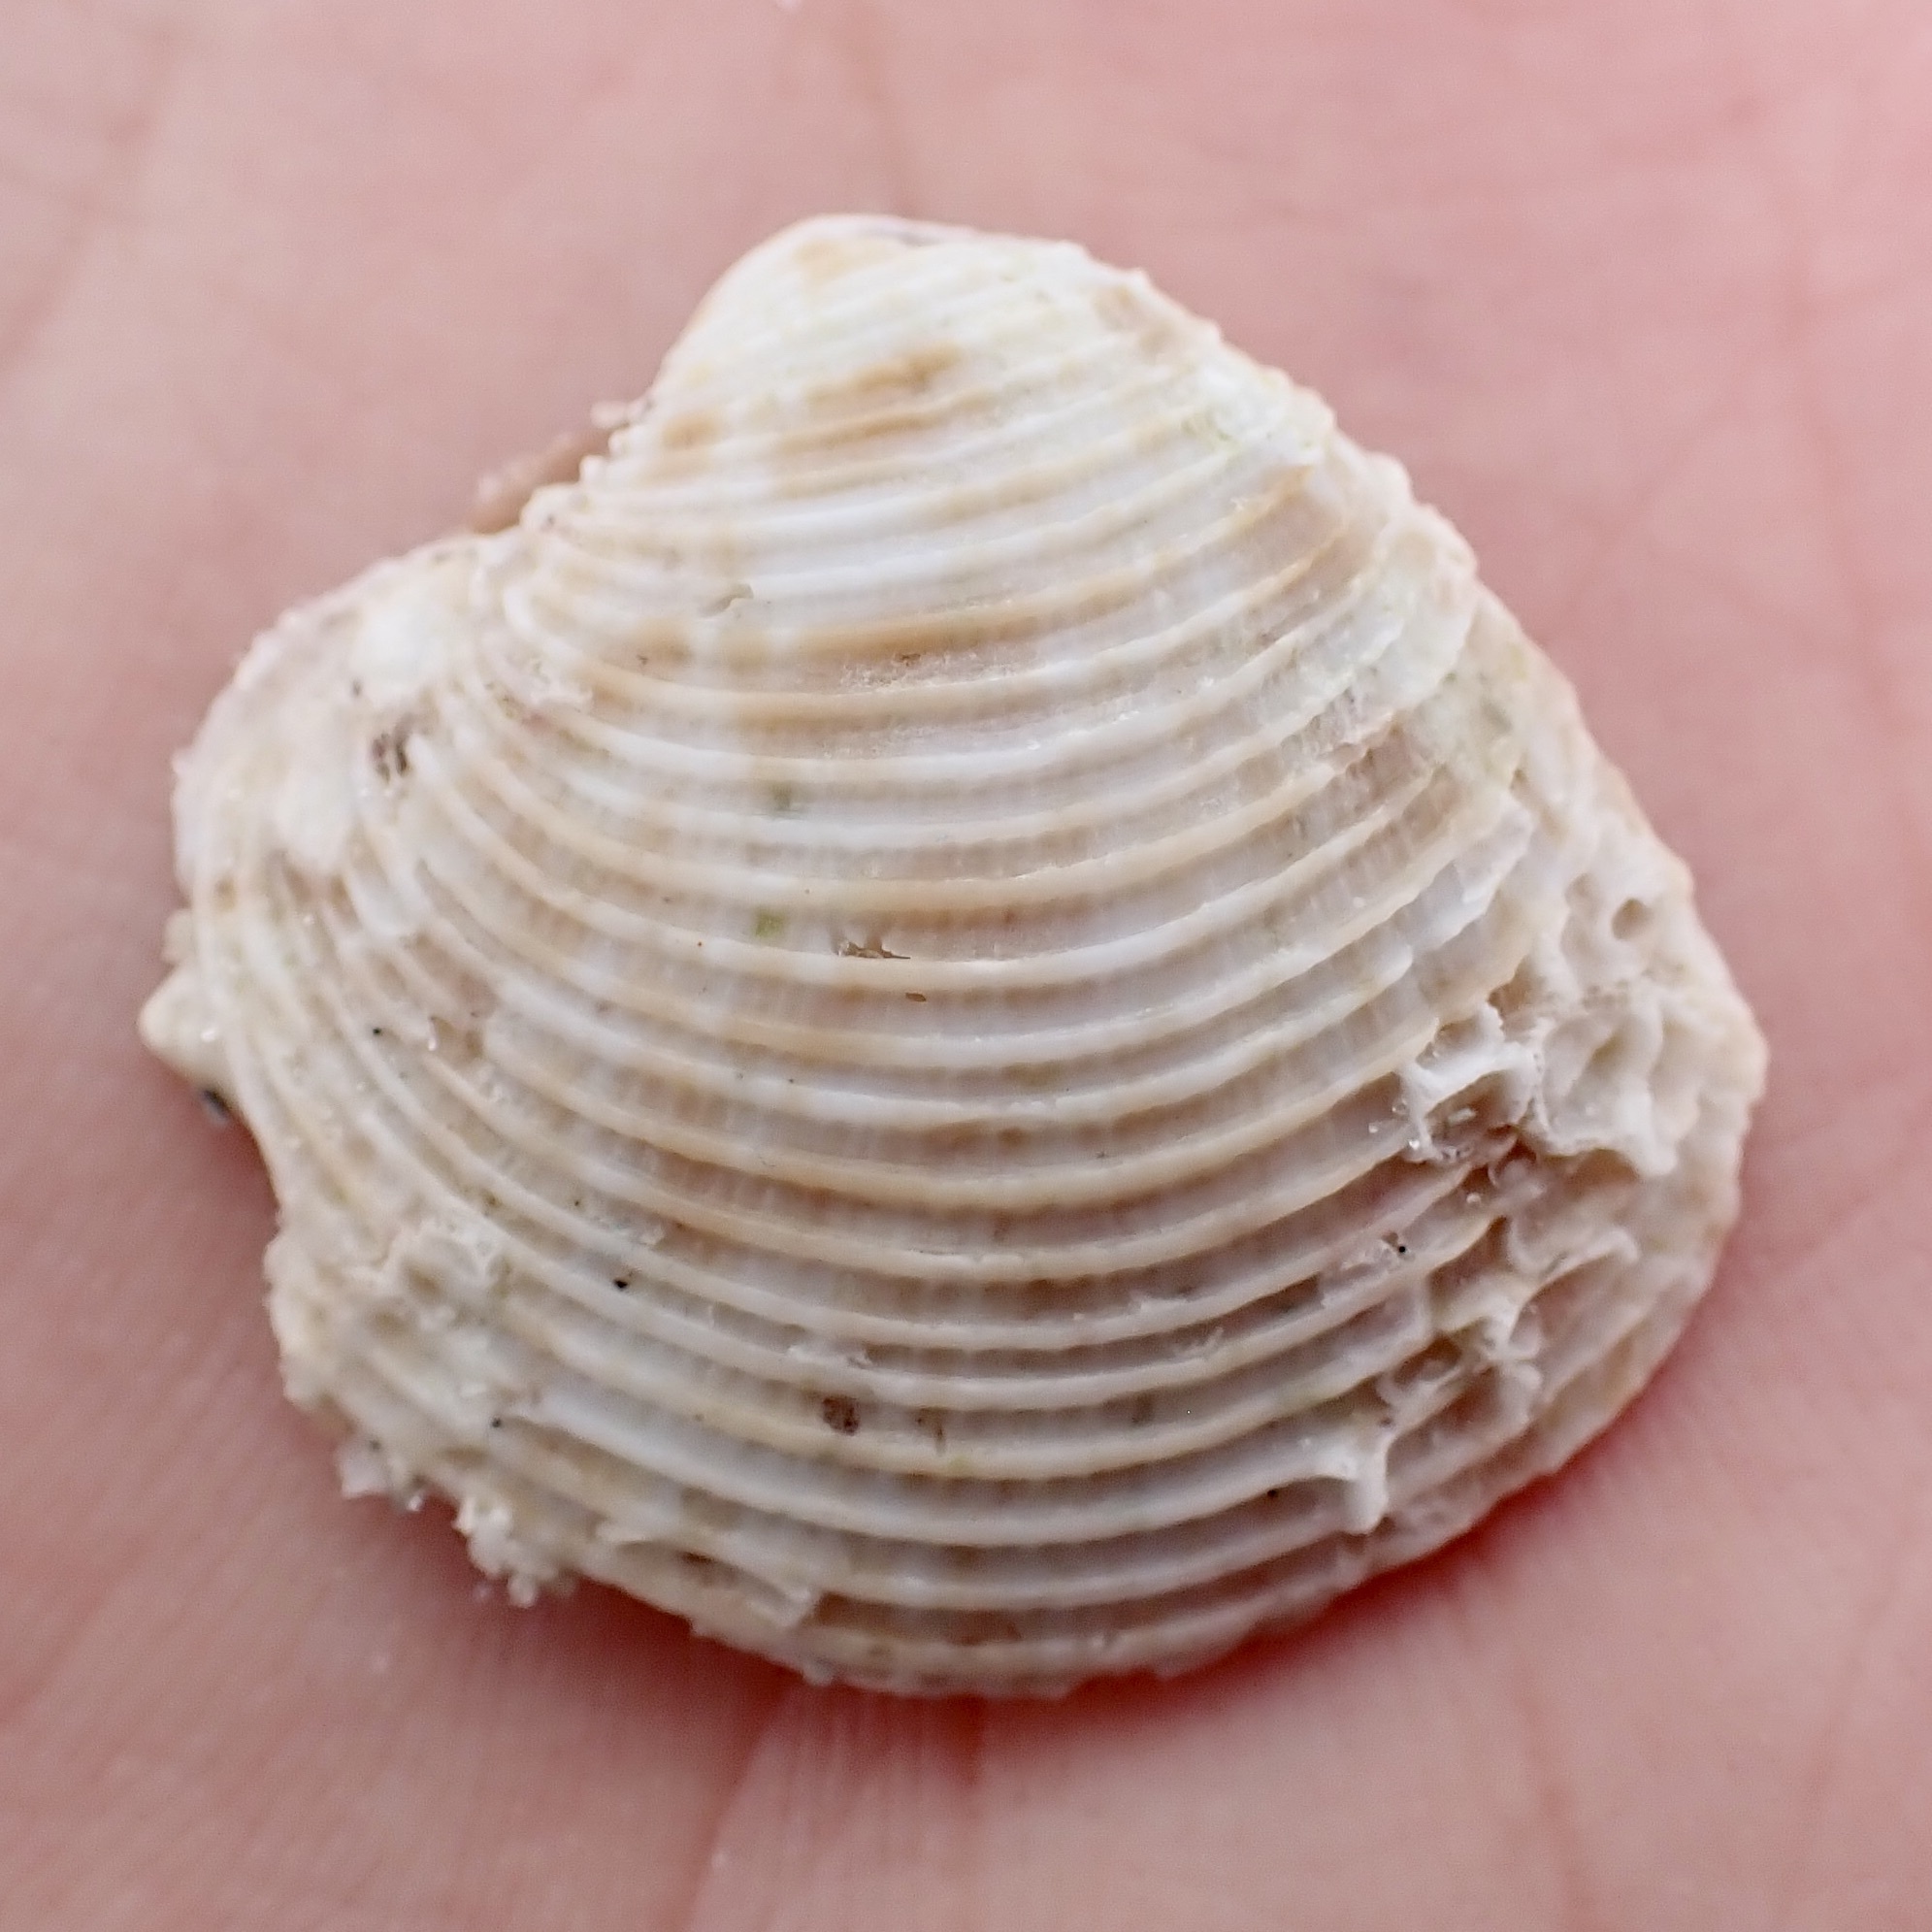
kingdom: Animalia
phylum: Mollusca
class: Bivalvia
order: Venerida
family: Veneridae
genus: Chionopsis
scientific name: Chionopsis intapurpurea
